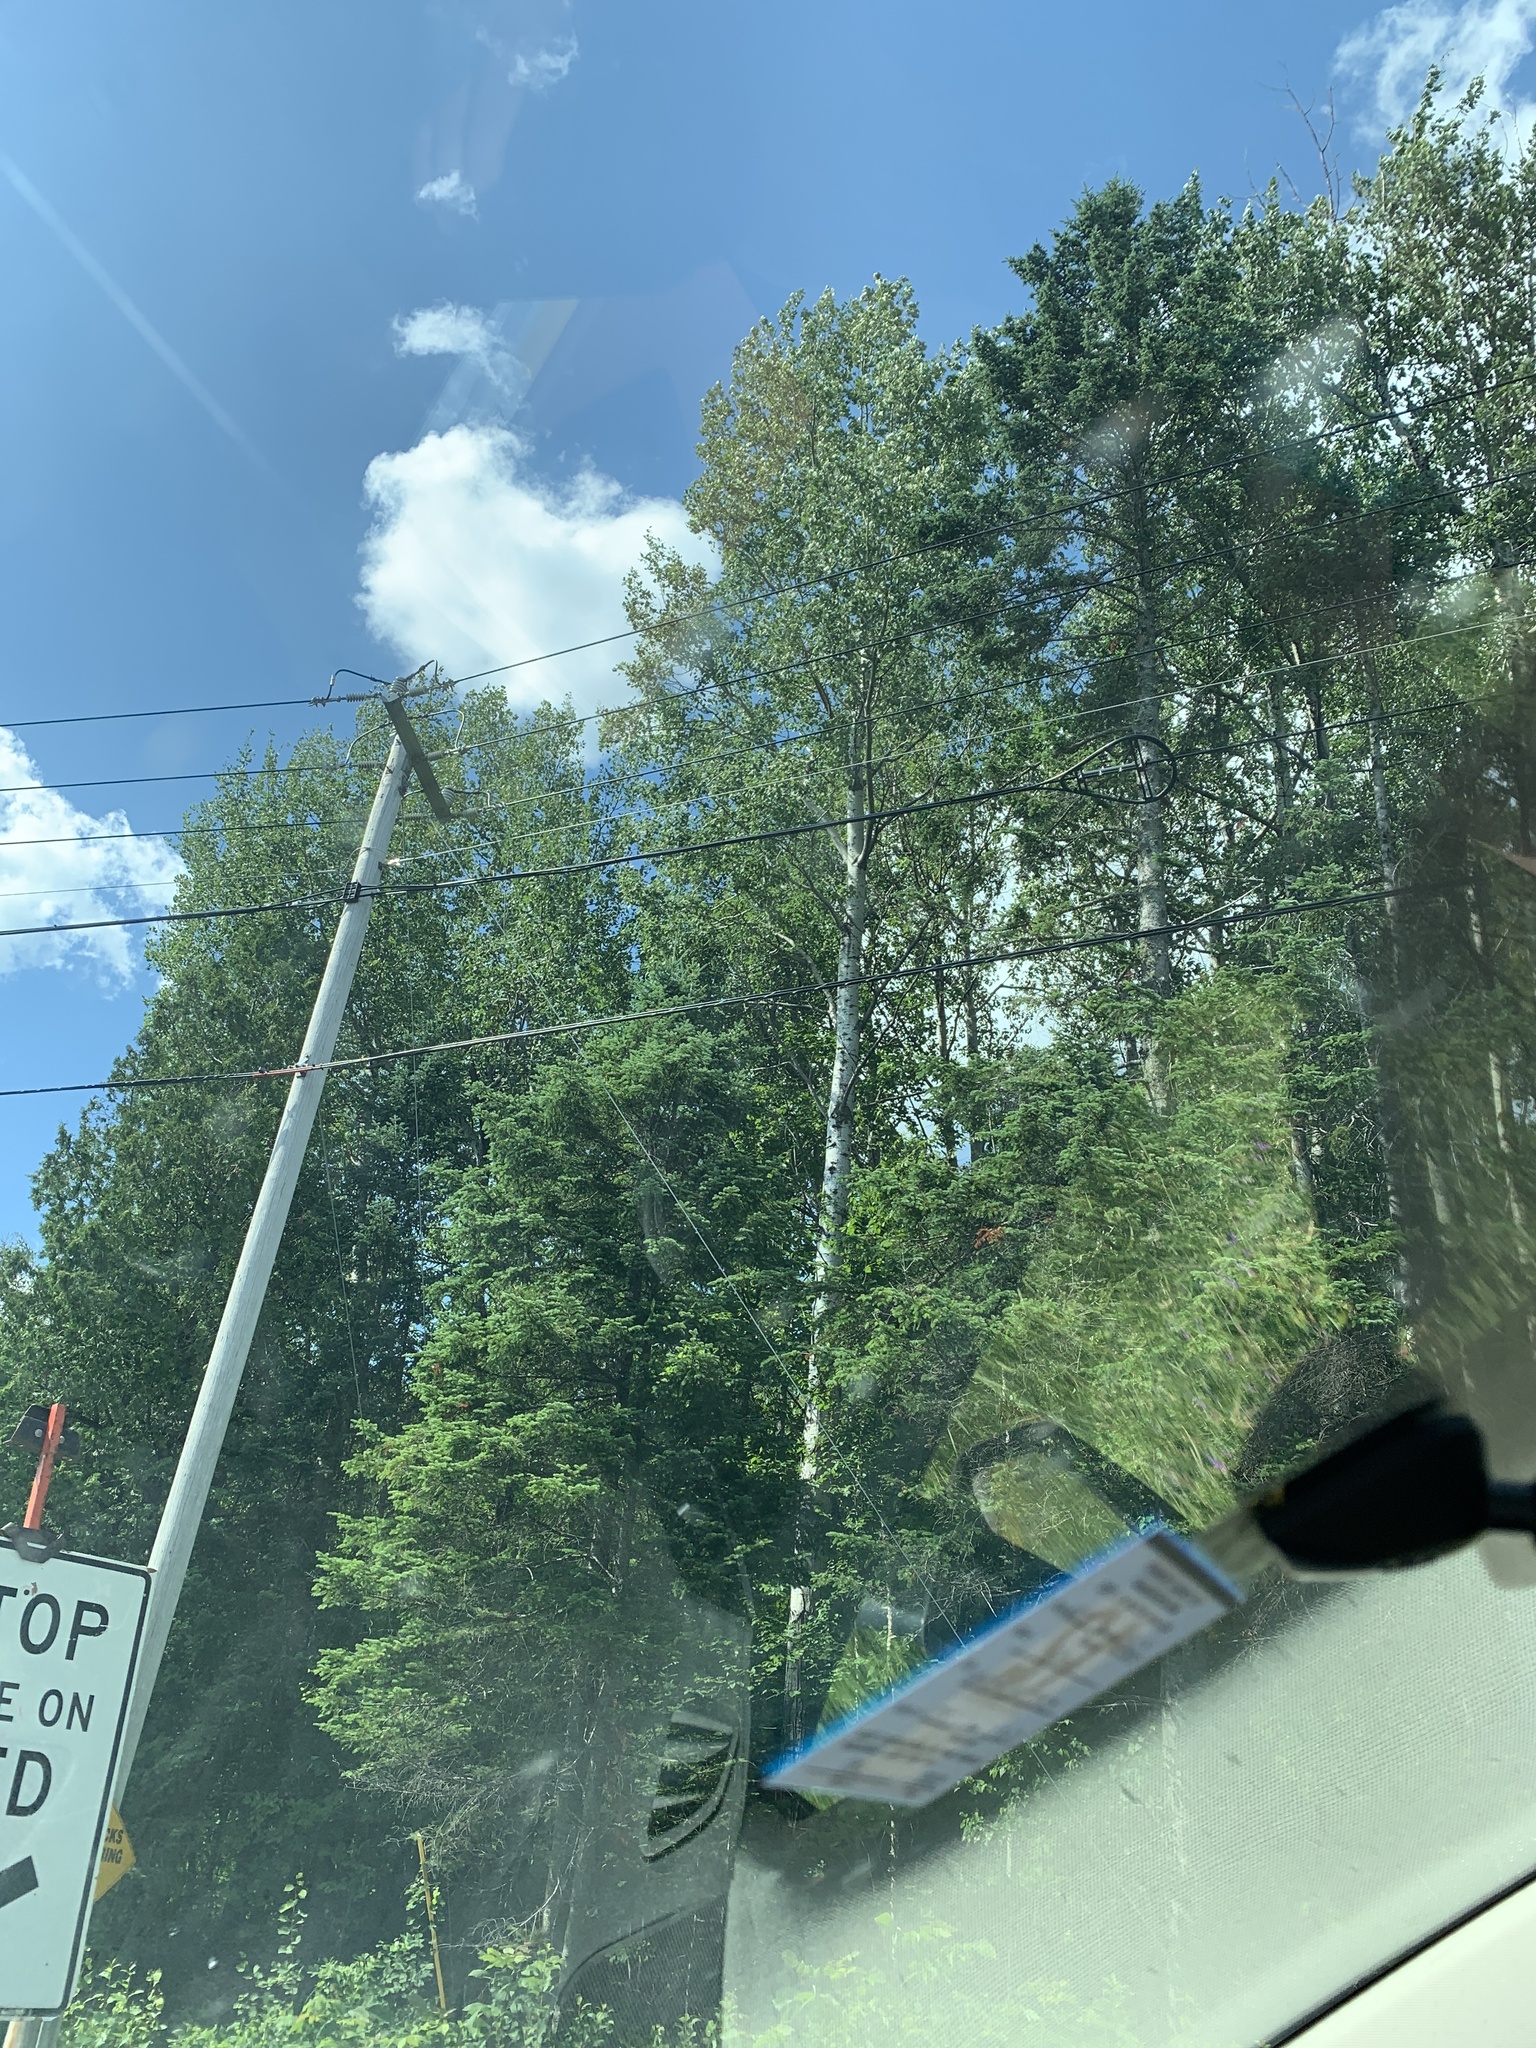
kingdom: Plantae
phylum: Tracheophyta
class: Magnoliopsida
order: Malpighiales
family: Salicaceae
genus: Populus
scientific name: Populus tremuloides
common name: Quaking aspen
